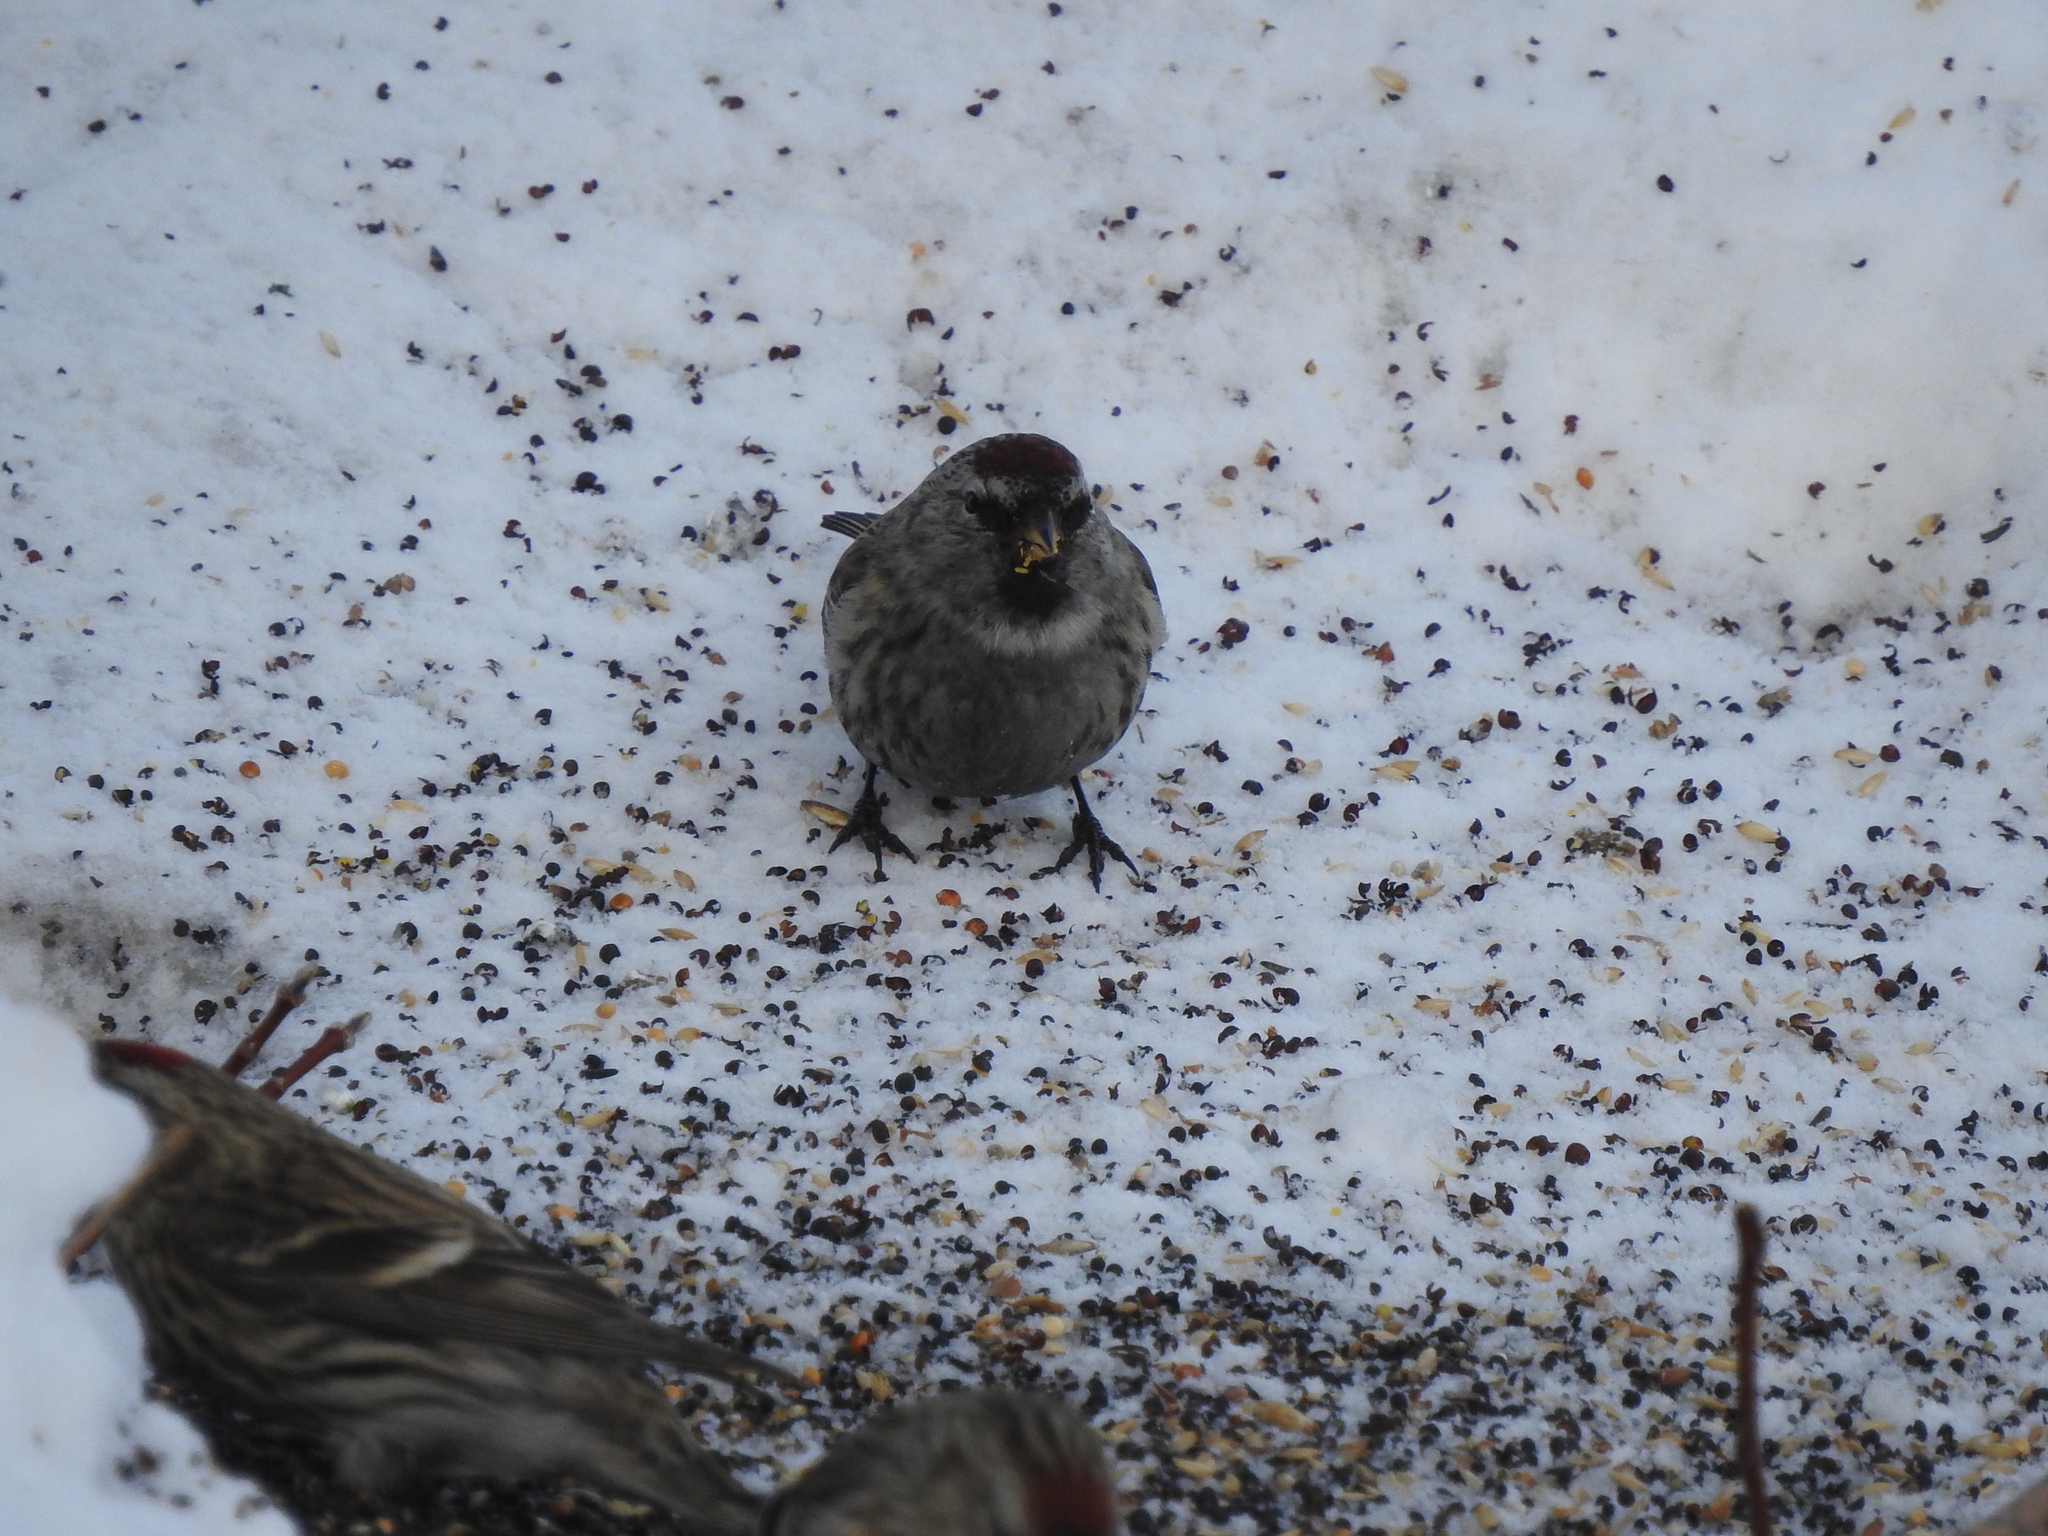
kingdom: Animalia
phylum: Chordata
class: Aves
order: Passeriformes
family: Fringillidae
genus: Acanthis
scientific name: Acanthis flammea
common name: Common redpoll
